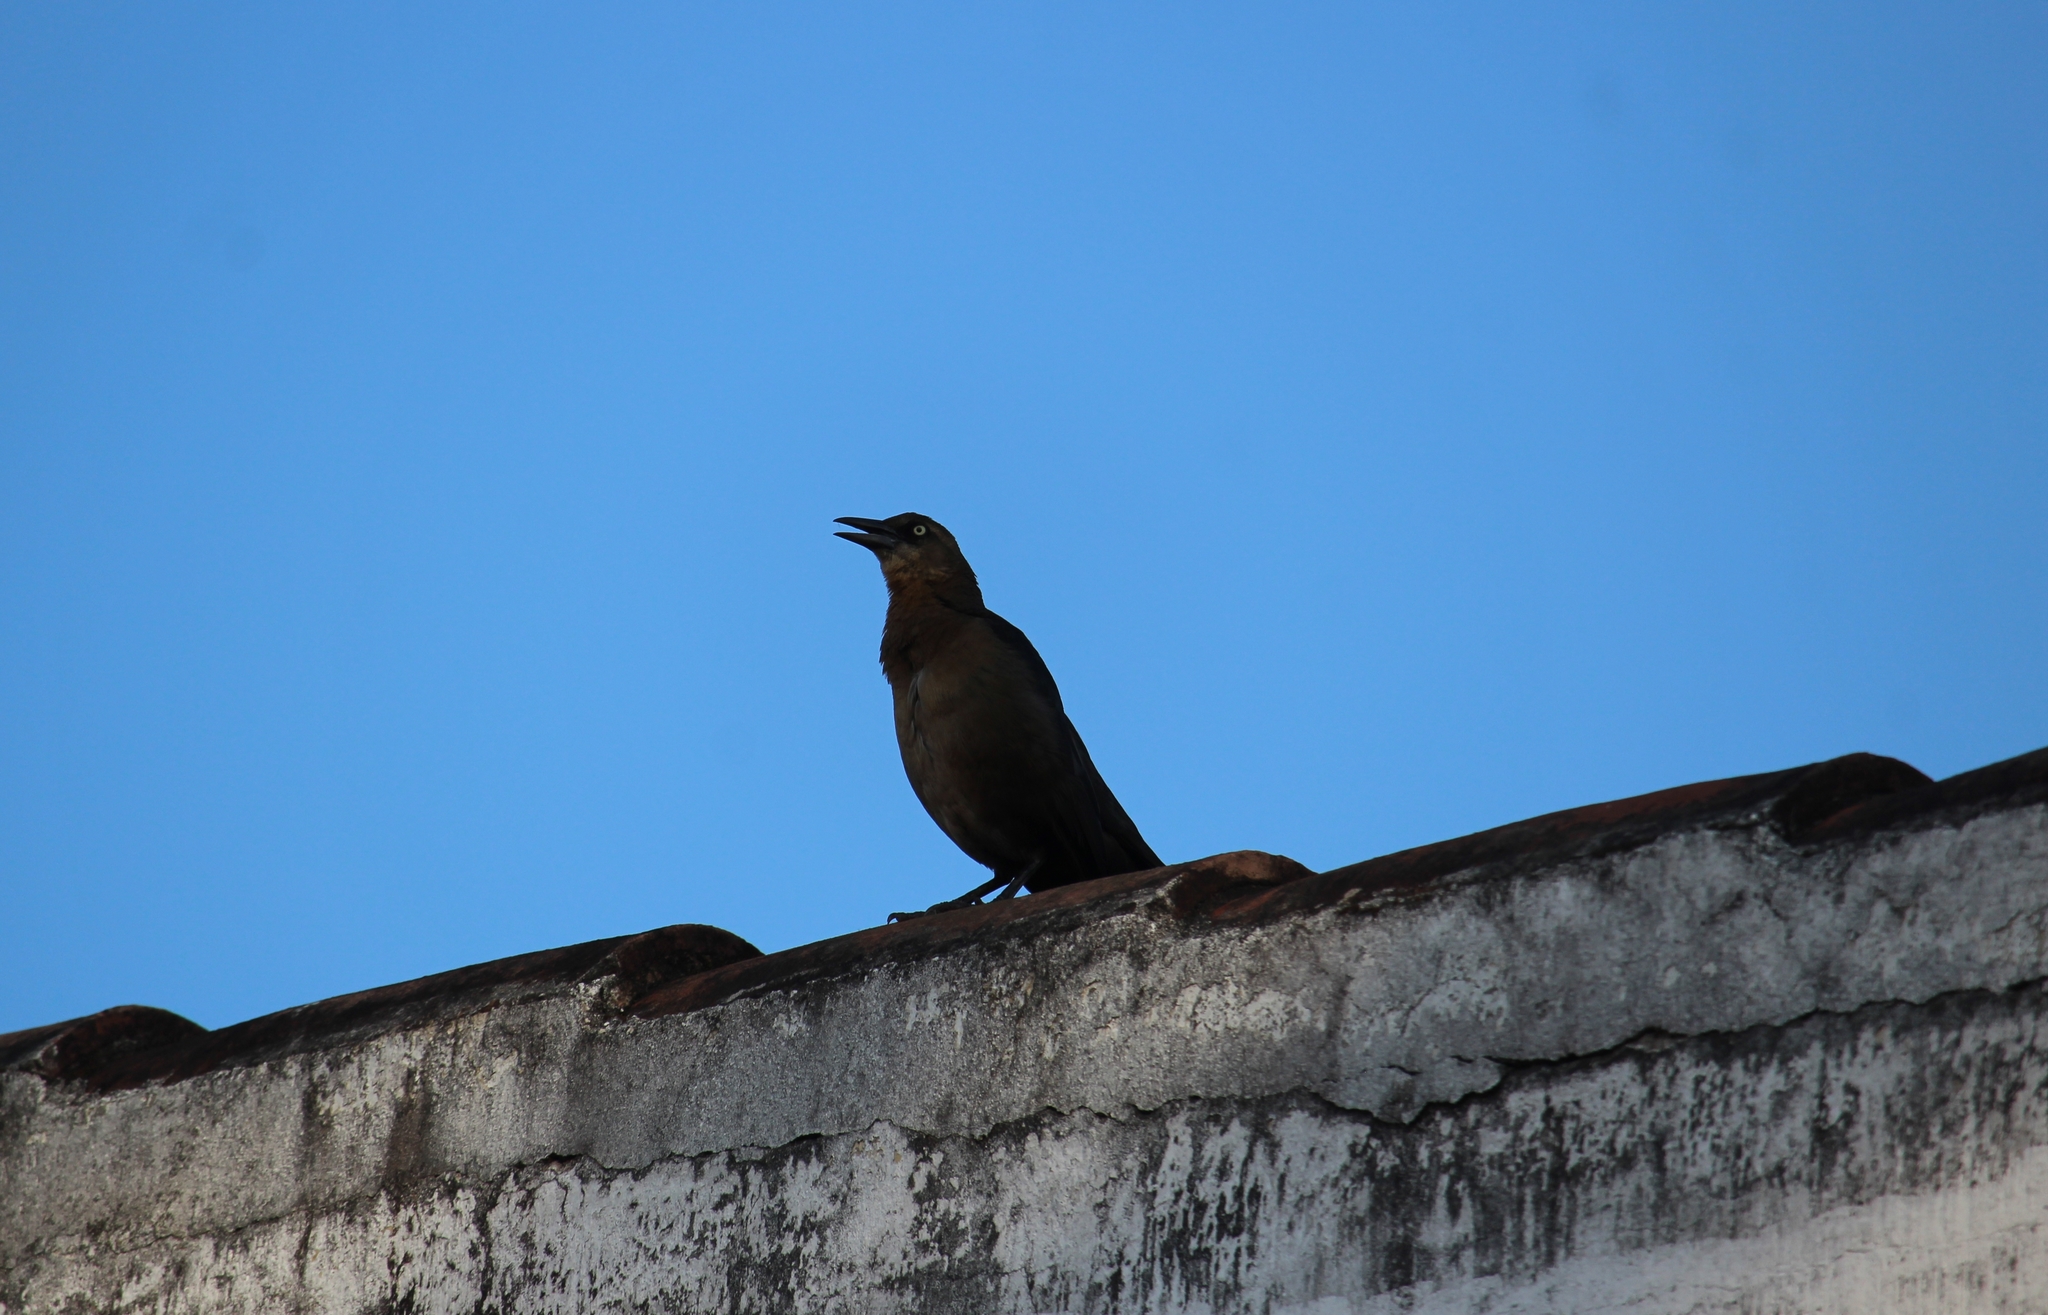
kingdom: Animalia
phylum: Chordata
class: Aves
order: Passeriformes
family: Icteridae
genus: Quiscalus
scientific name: Quiscalus mexicanus
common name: Great-tailed grackle
